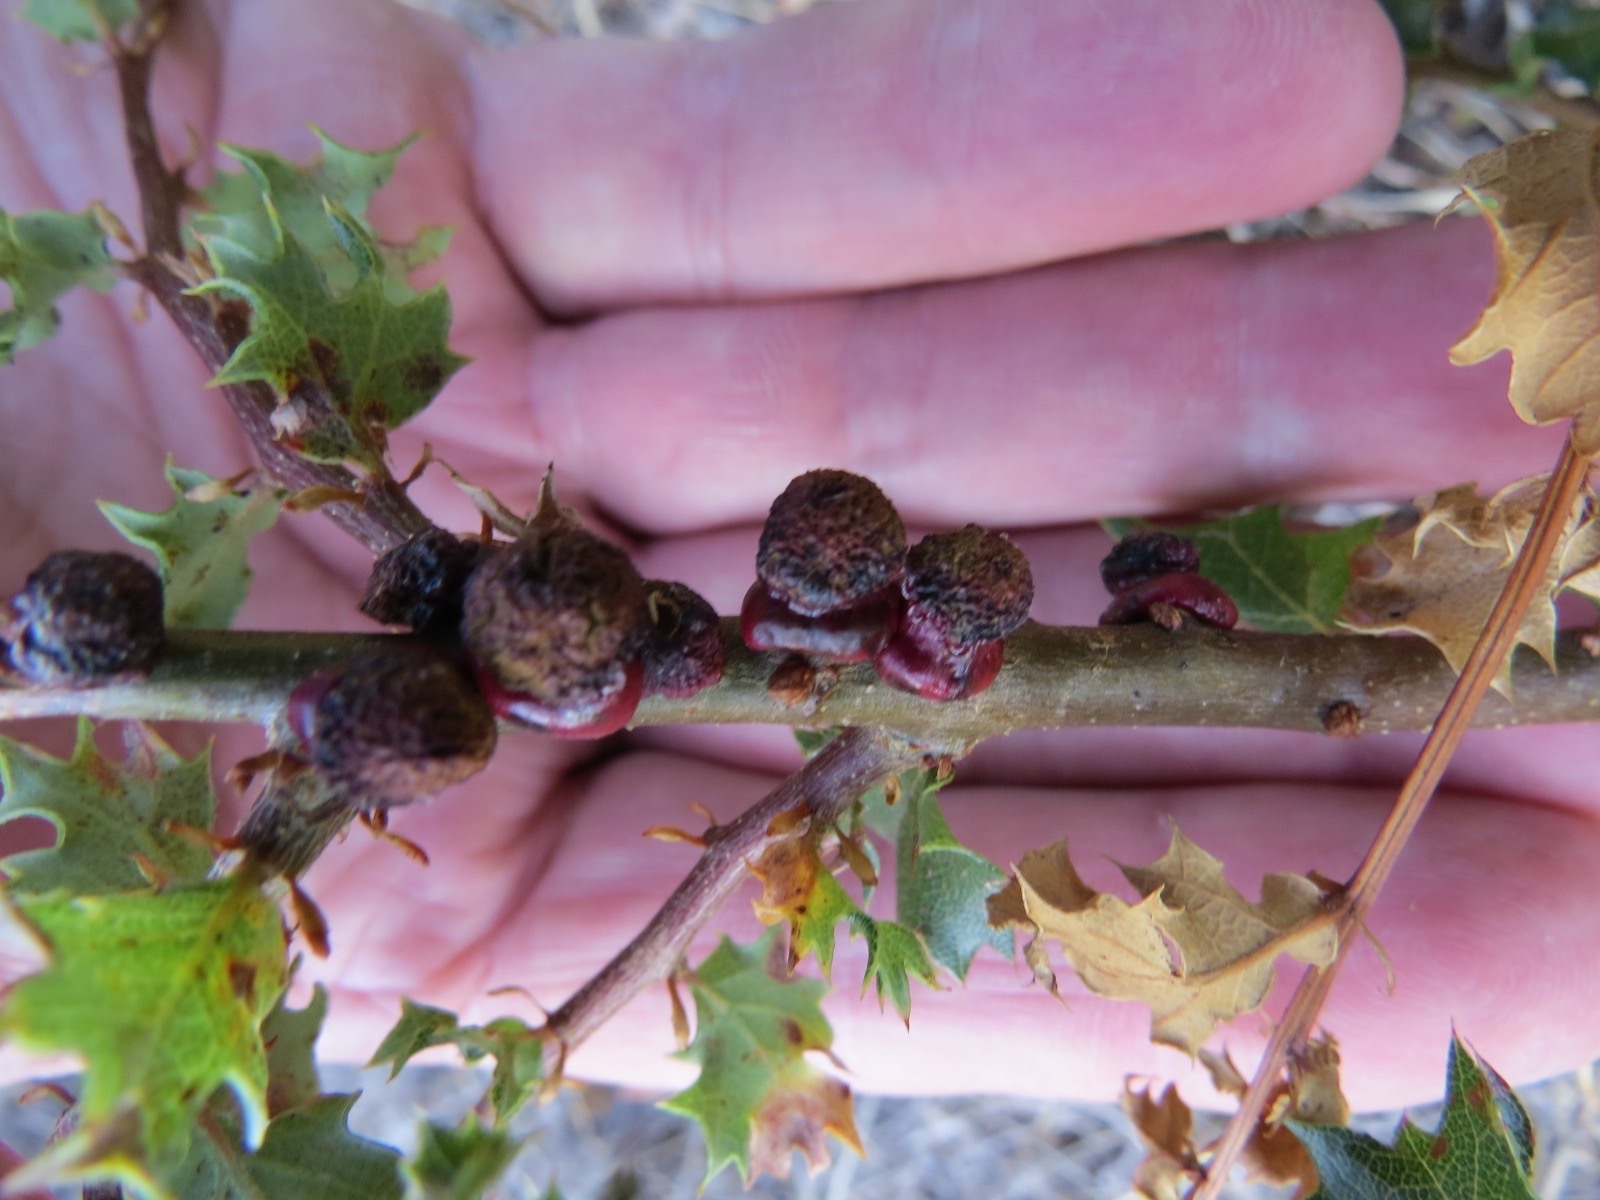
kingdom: Animalia
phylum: Arthropoda
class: Insecta
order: Hymenoptera
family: Cynipidae
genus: Disholcaspis
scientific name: Disholcaspis prehensa
